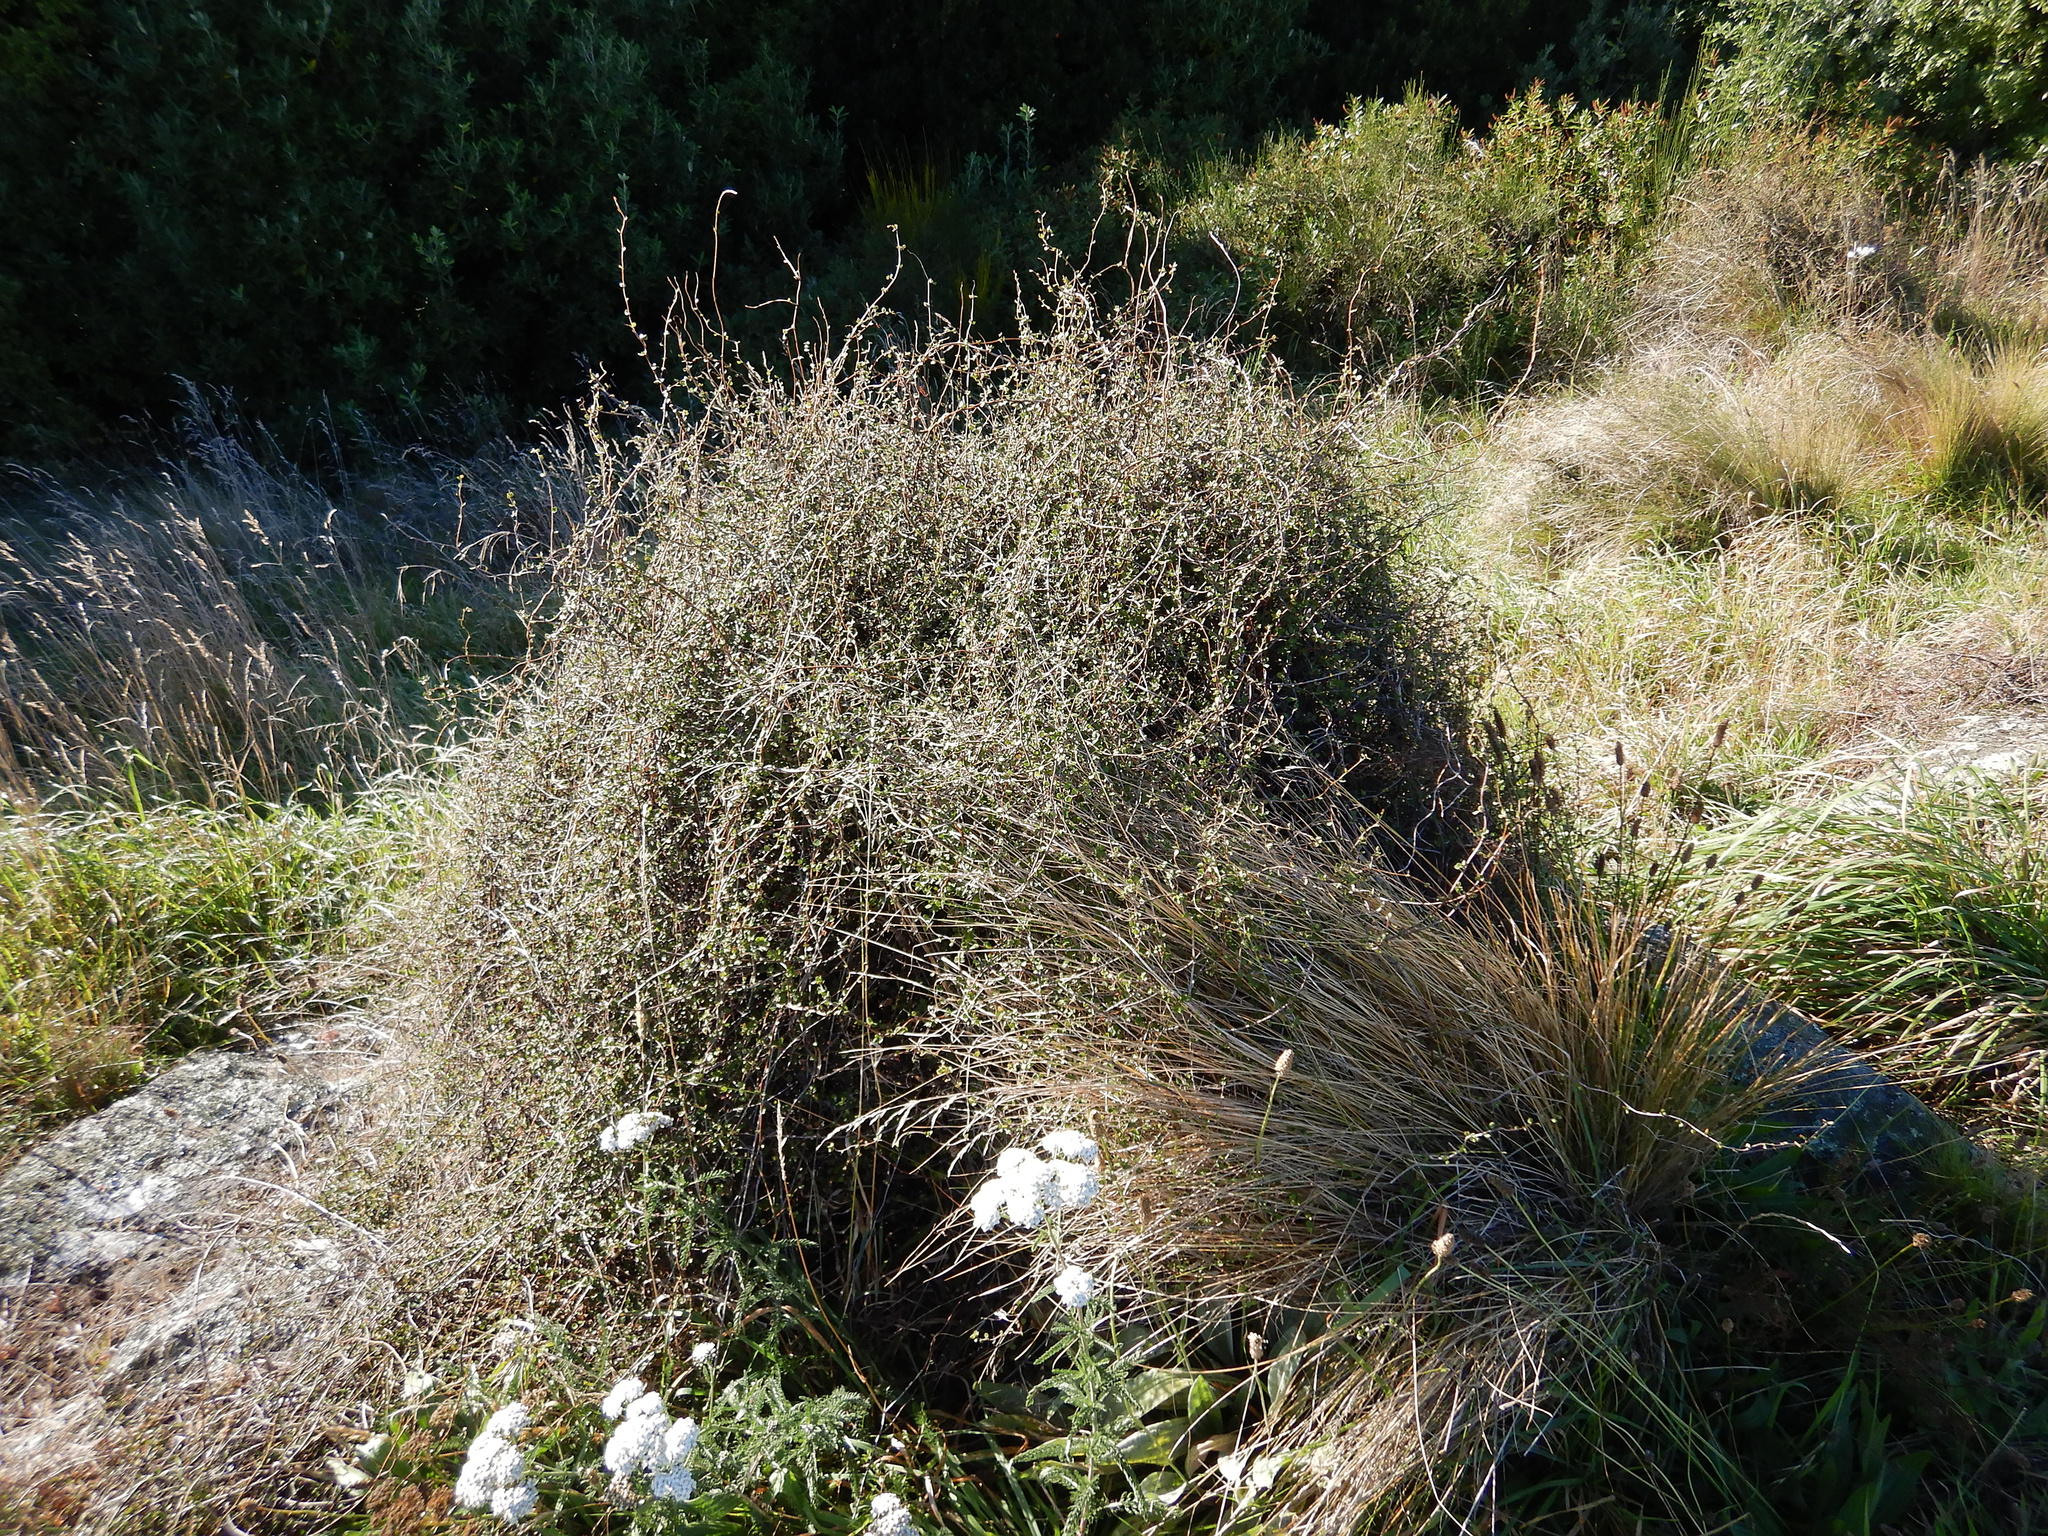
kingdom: Plantae
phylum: Tracheophyta
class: Magnoliopsida
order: Caryophyllales
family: Polygonaceae
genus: Muehlenbeckia
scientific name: Muehlenbeckia complexa
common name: Wireplant
